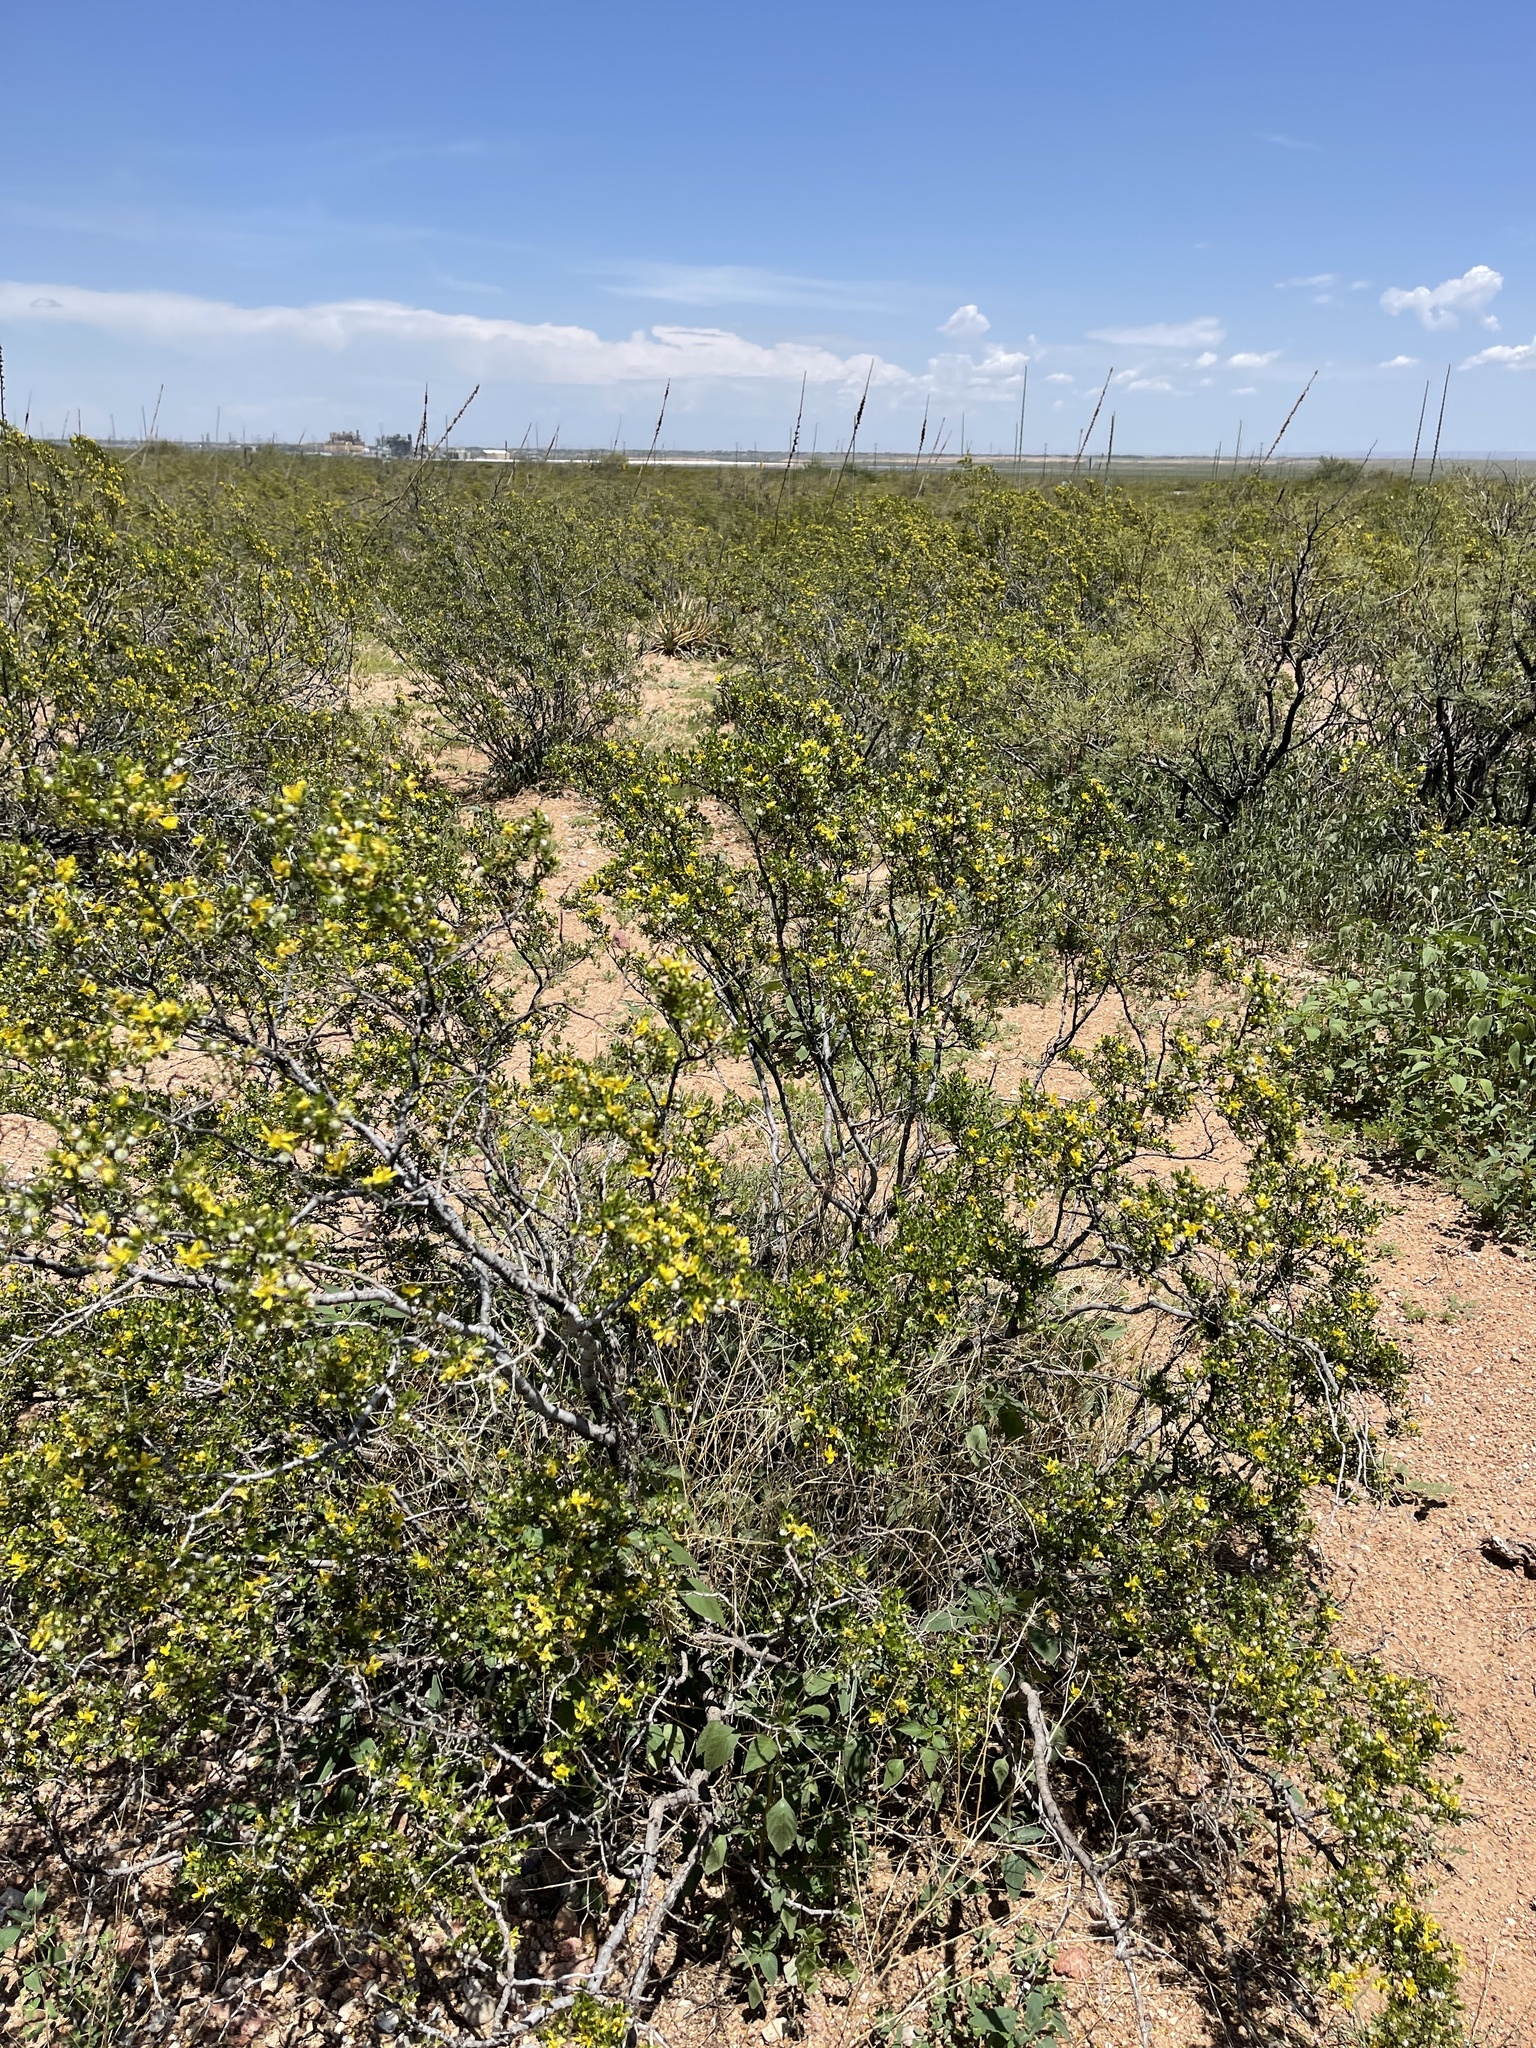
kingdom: Plantae
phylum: Tracheophyta
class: Magnoliopsida
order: Zygophyllales
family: Zygophyllaceae
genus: Larrea
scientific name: Larrea tridentata
